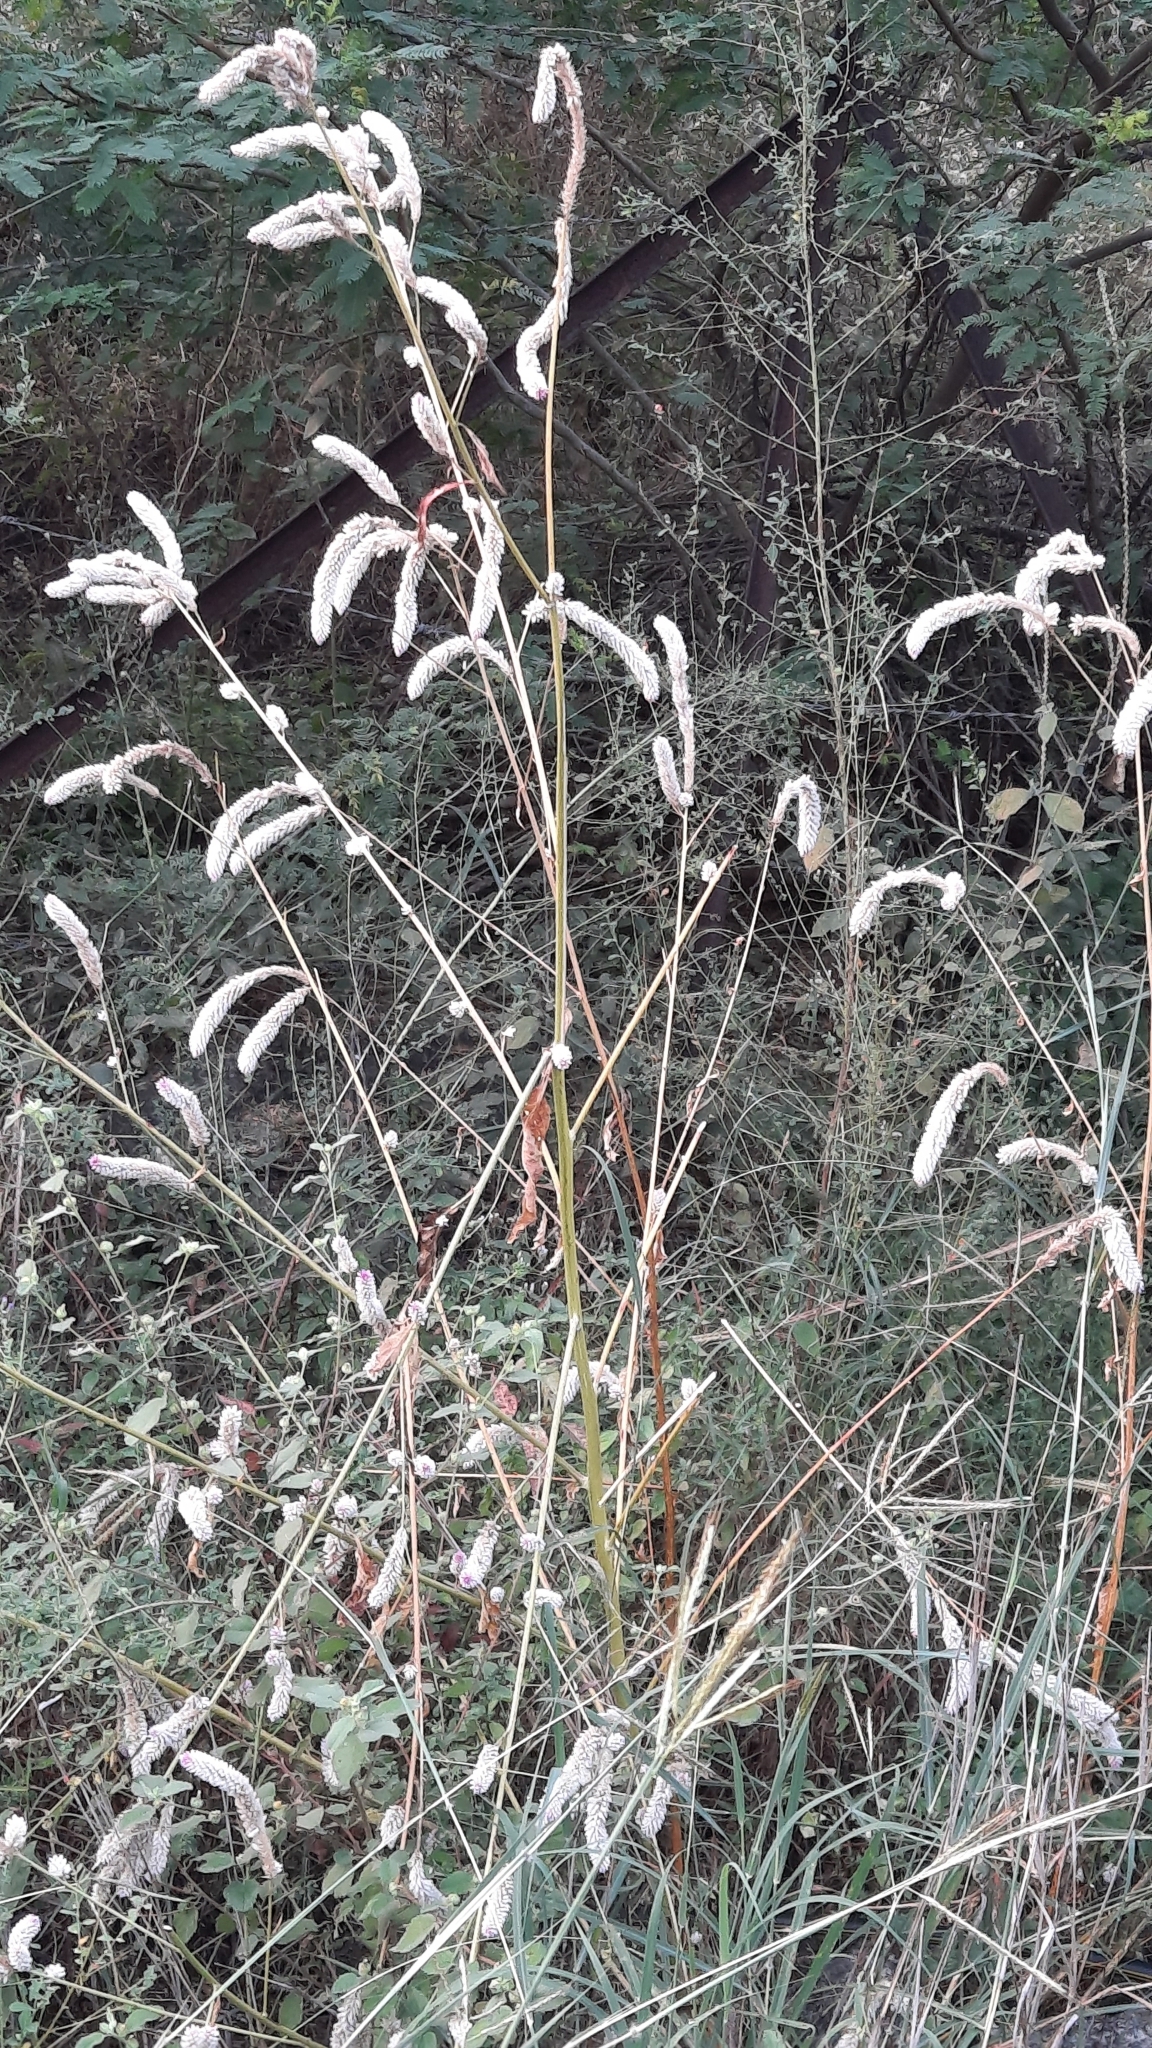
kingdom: Plantae
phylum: Tracheophyta
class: Magnoliopsida
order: Caryophyllales
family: Amaranthaceae
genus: Celosia
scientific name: Celosia argentea
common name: Feather cockscomb
